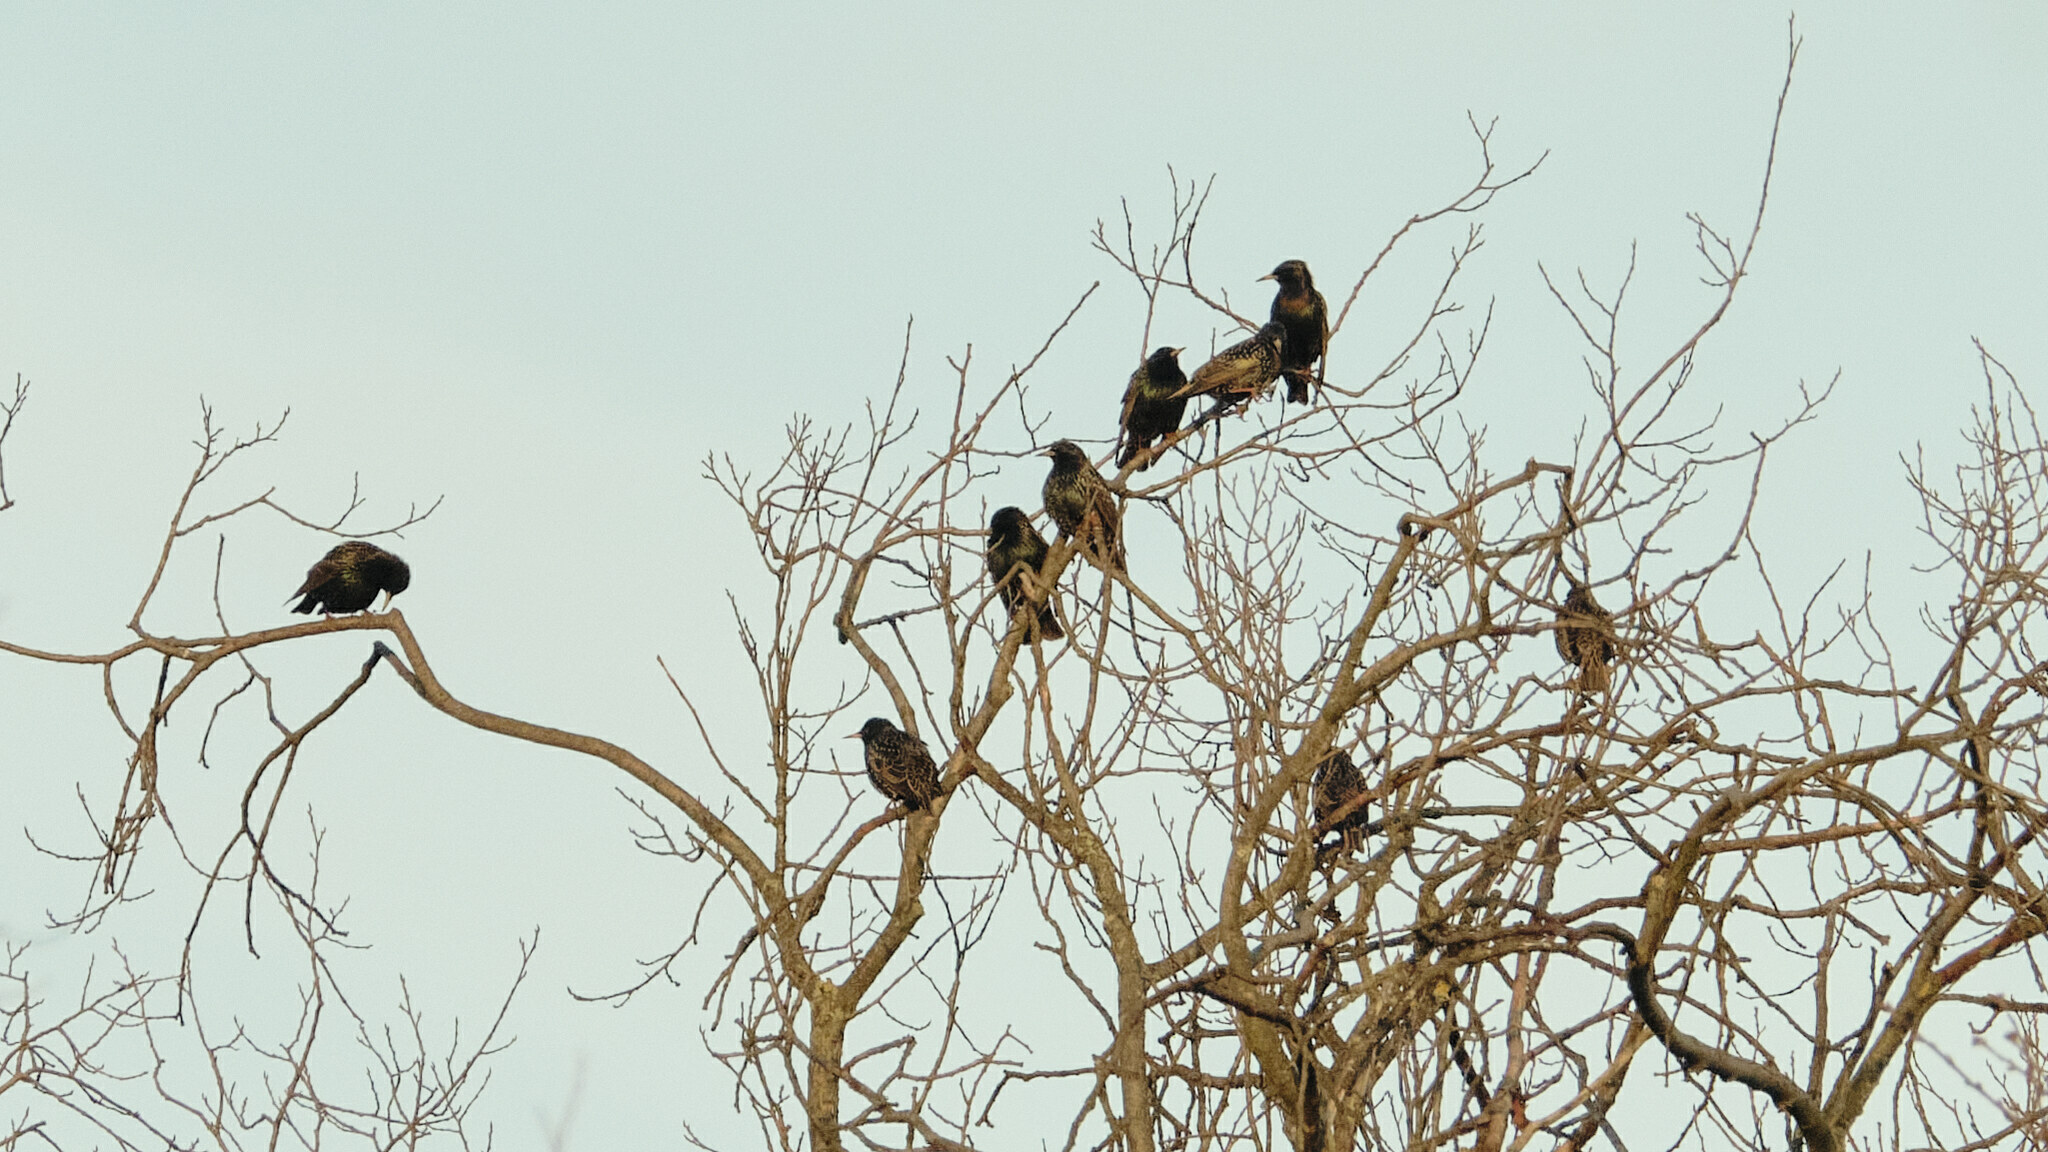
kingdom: Animalia
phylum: Chordata
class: Aves
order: Passeriformes
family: Sturnidae
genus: Sturnus
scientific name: Sturnus vulgaris
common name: Common starling
